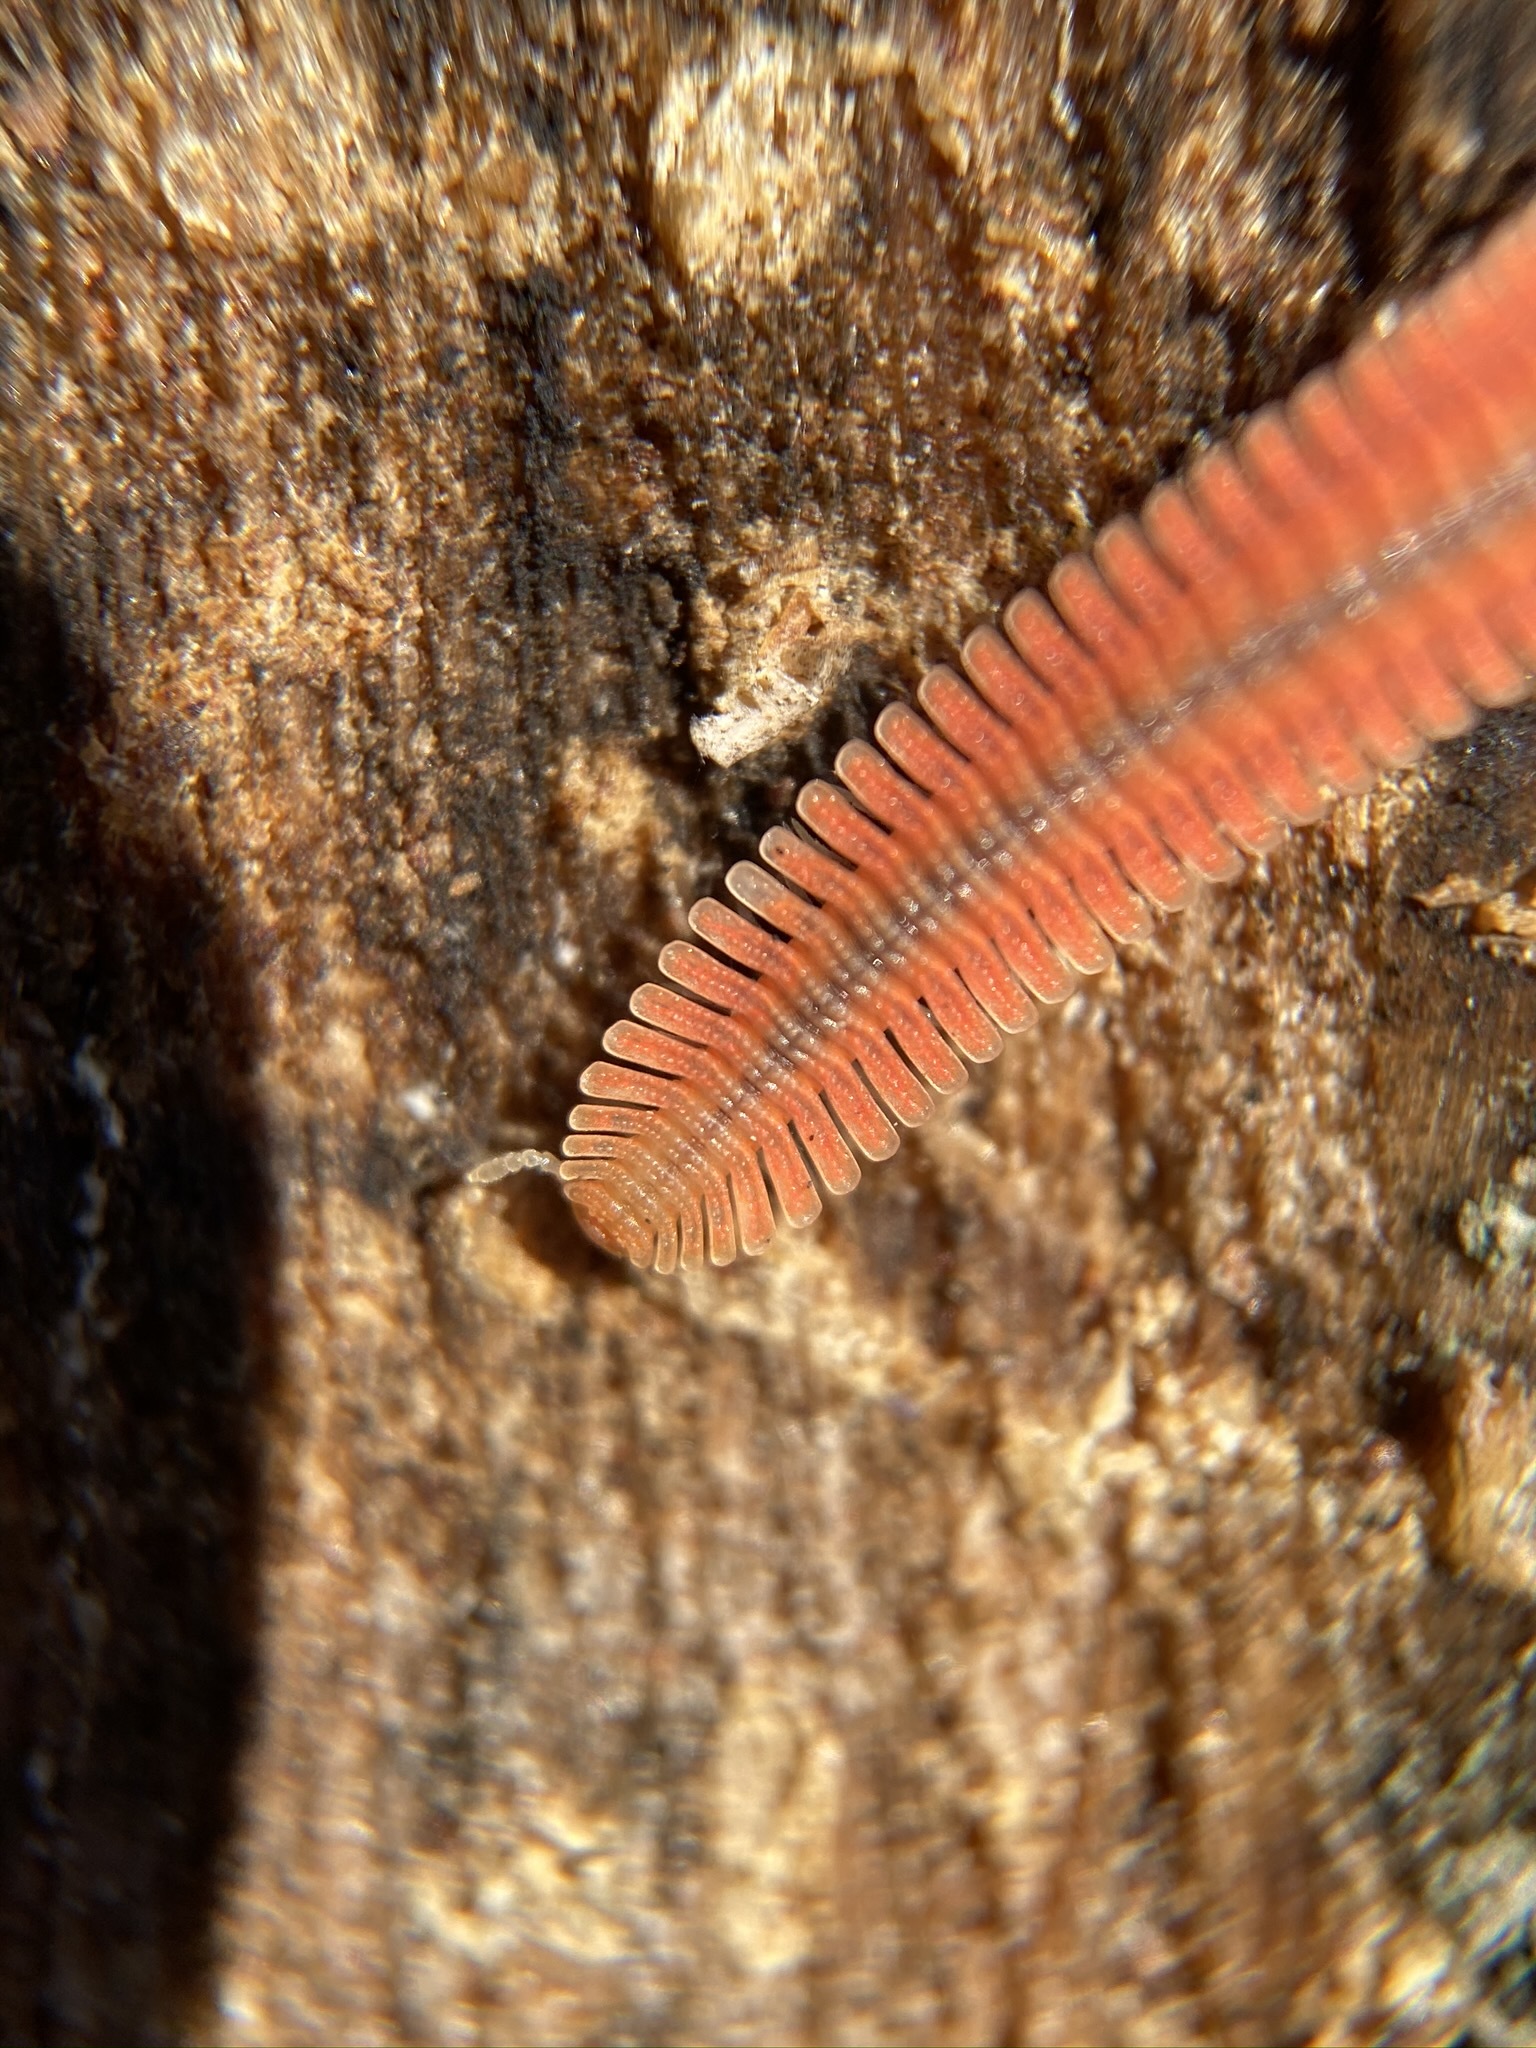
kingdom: Animalia
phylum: Arthropoda
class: Diplopoda
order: Platydesmida
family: Andrognathidae
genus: Brachycybe
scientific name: Brachycybe rosea
